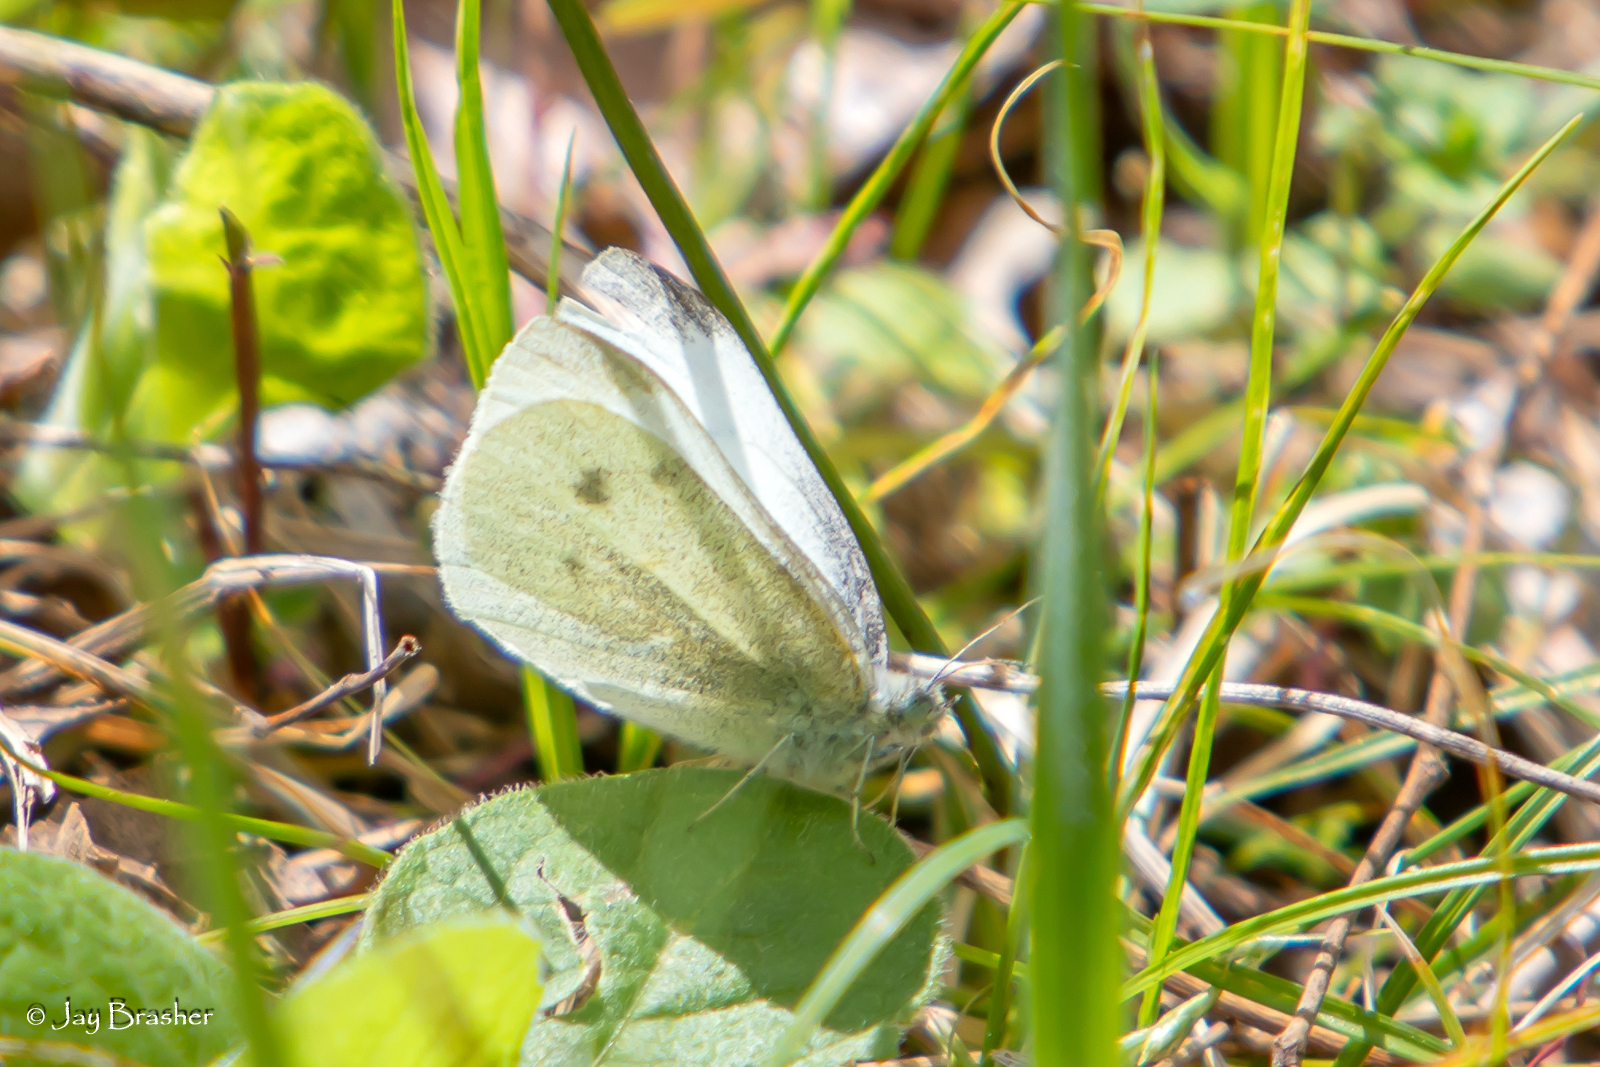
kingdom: Animalia
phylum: Arthropoda
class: Insecta
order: Lepidoptera
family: Pieridae
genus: Pieris
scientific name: Pieris rapae
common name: Small white
